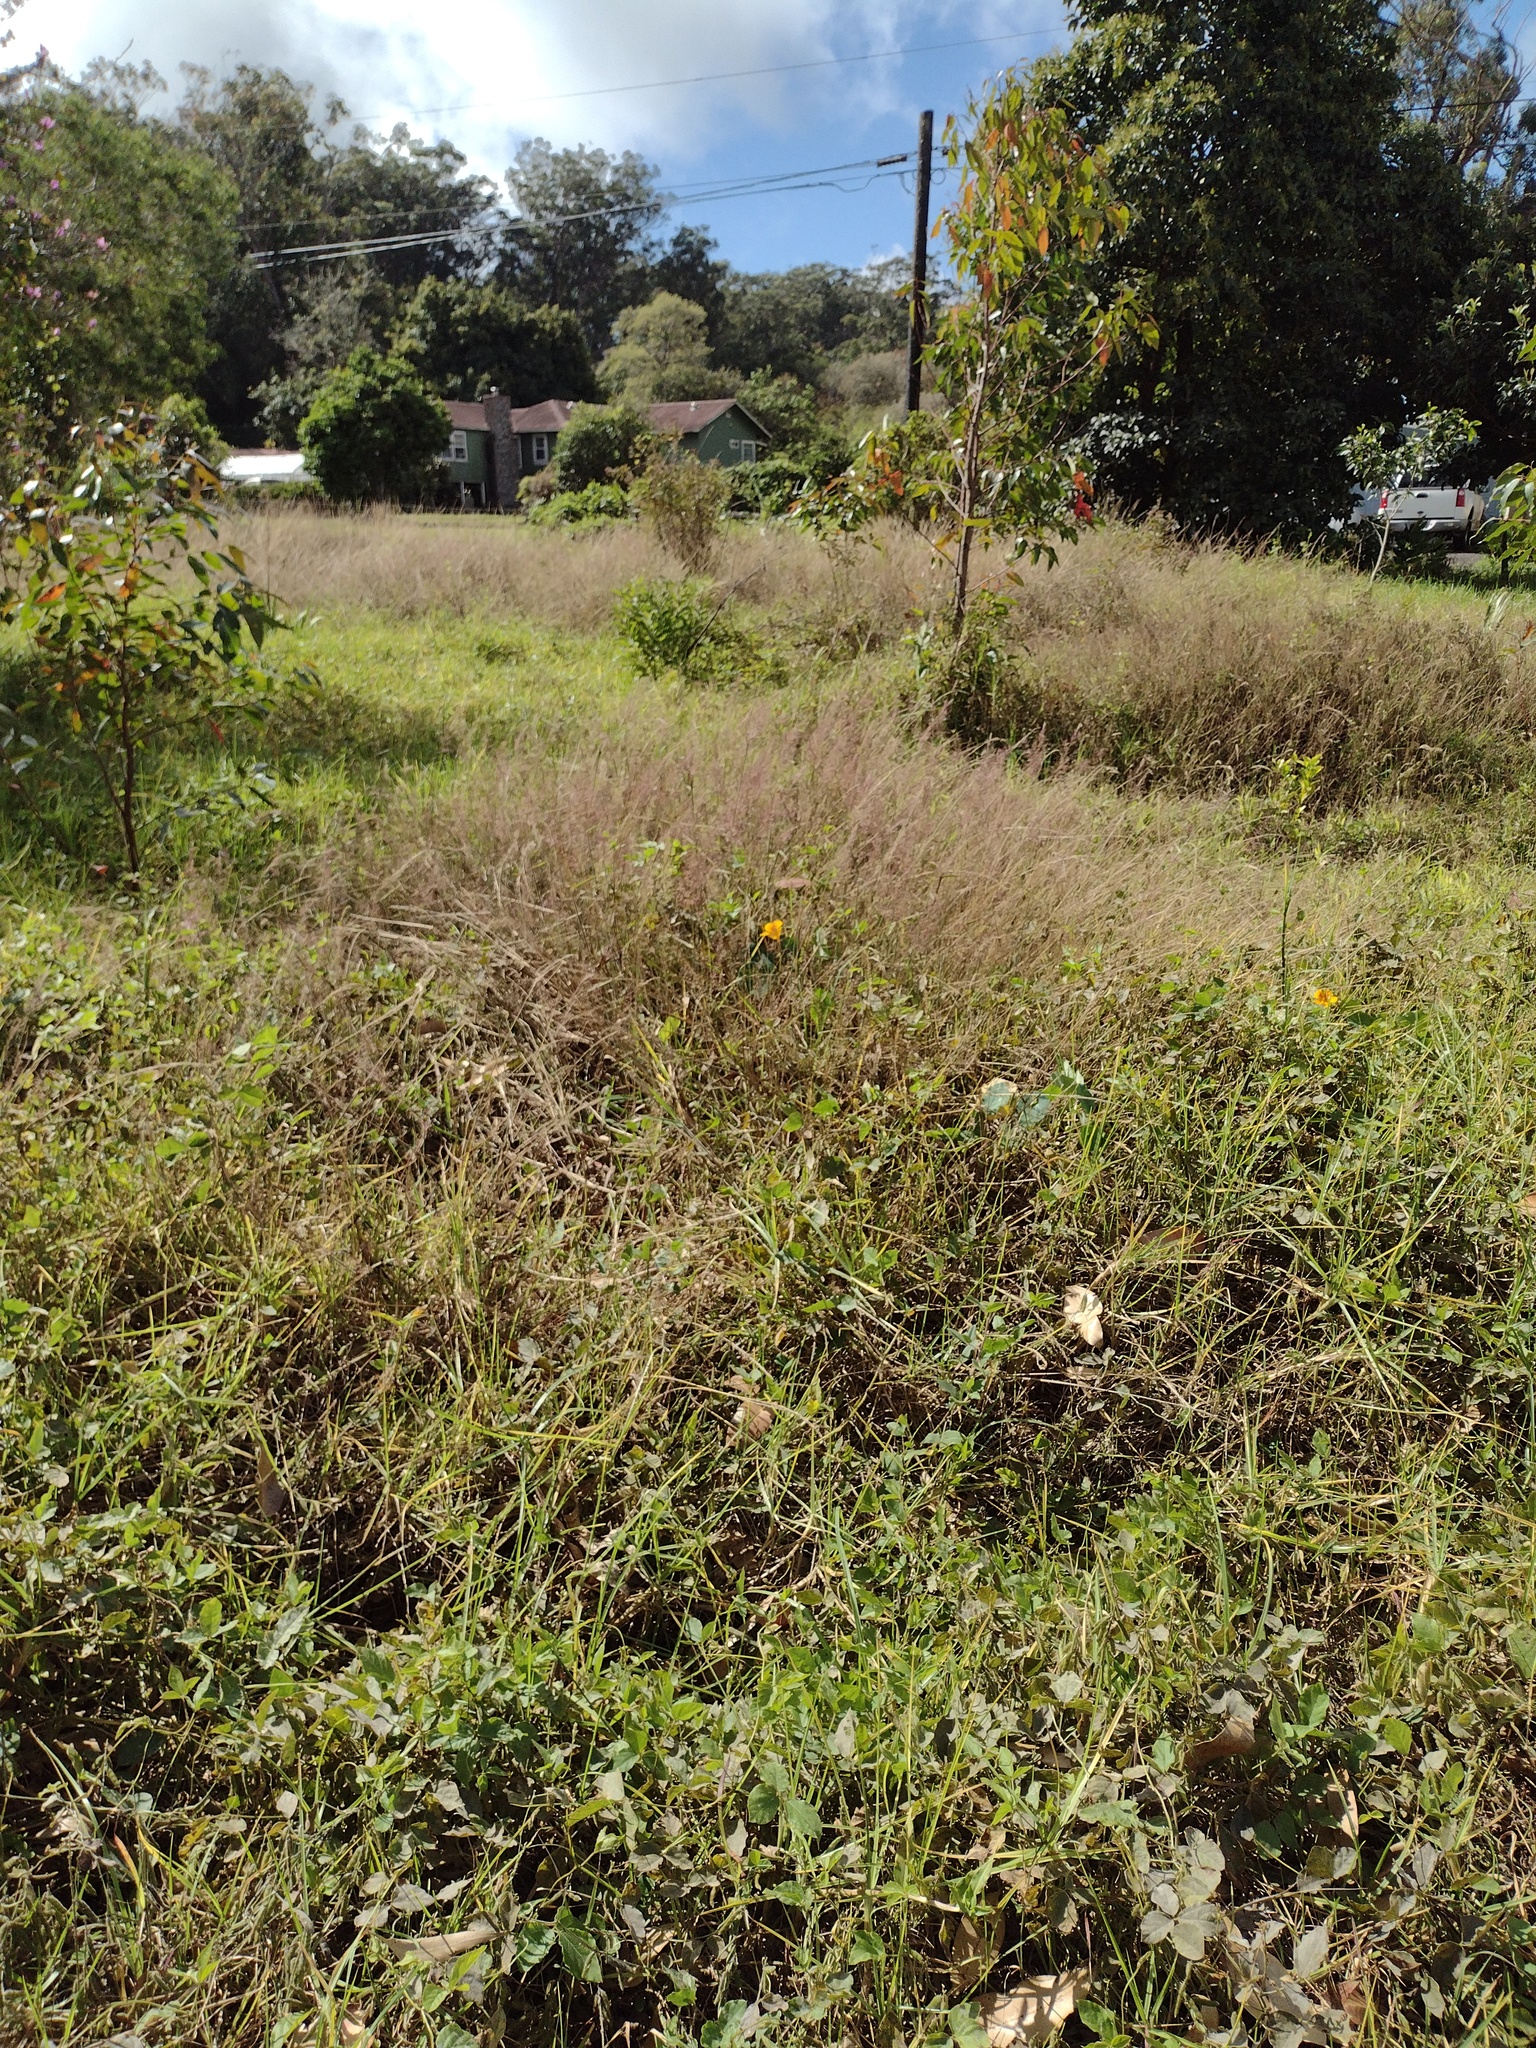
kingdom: Plantae
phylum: Tracheophyta
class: Liliopsida
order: Poales
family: Poaceae
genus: Melinis
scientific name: Melinis minutiflora
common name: Molassesgrass
